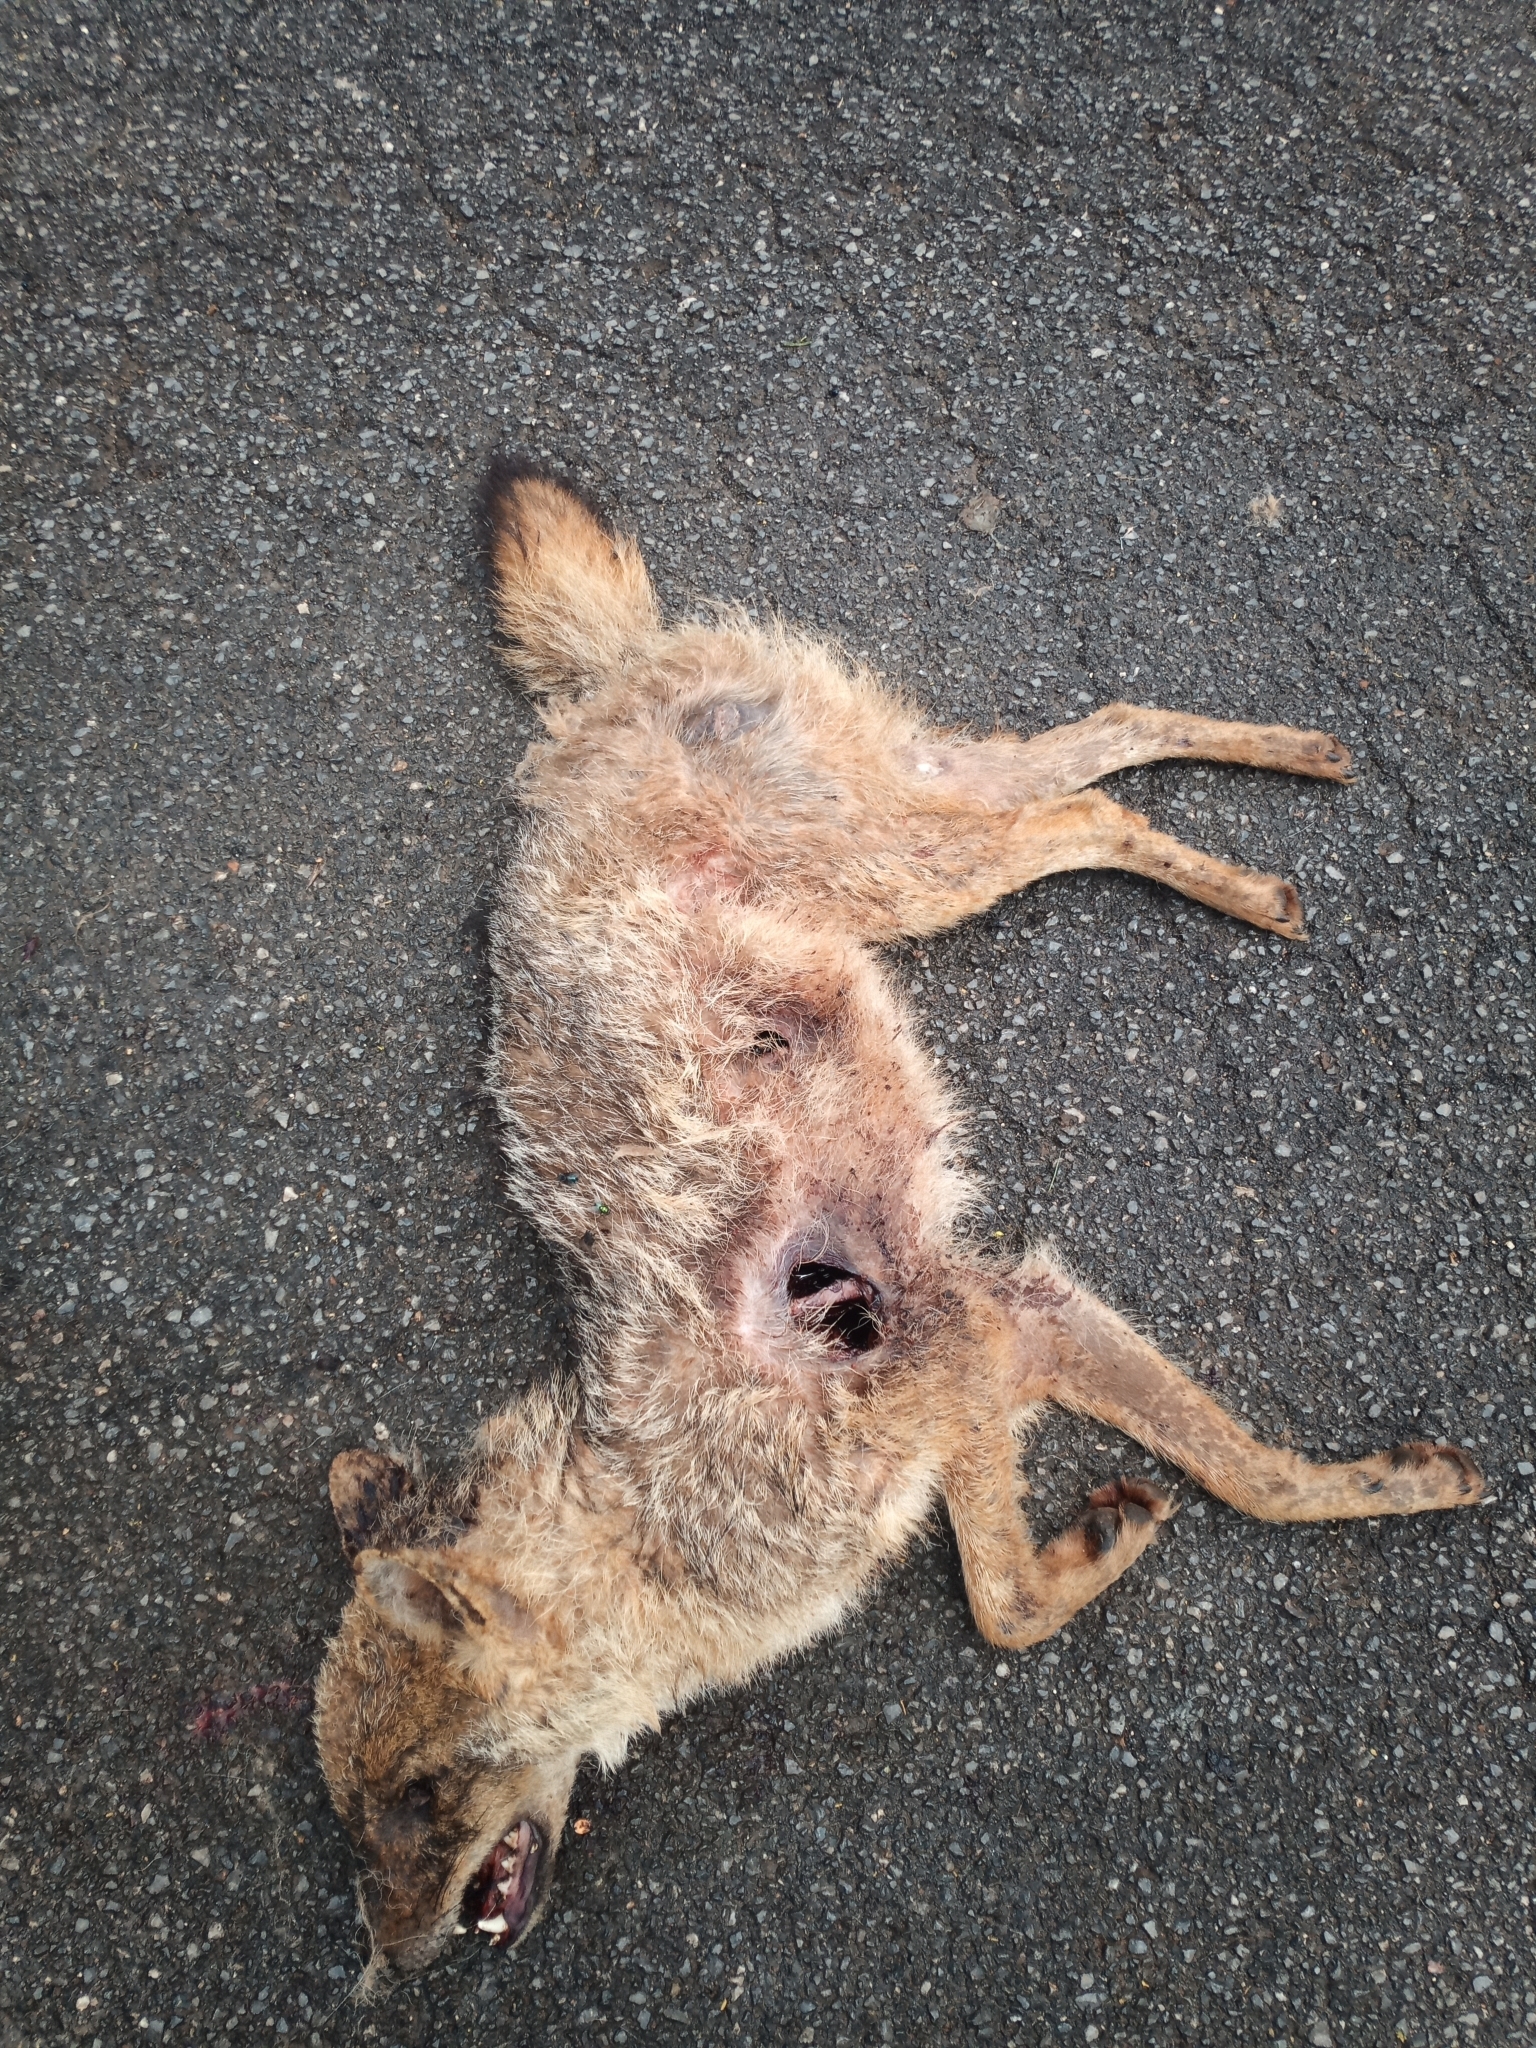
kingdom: Animalia
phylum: Chordata
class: Mammalia
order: Carnivora
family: Canidae
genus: Canis
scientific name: Canis aureus
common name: Golden jackal
